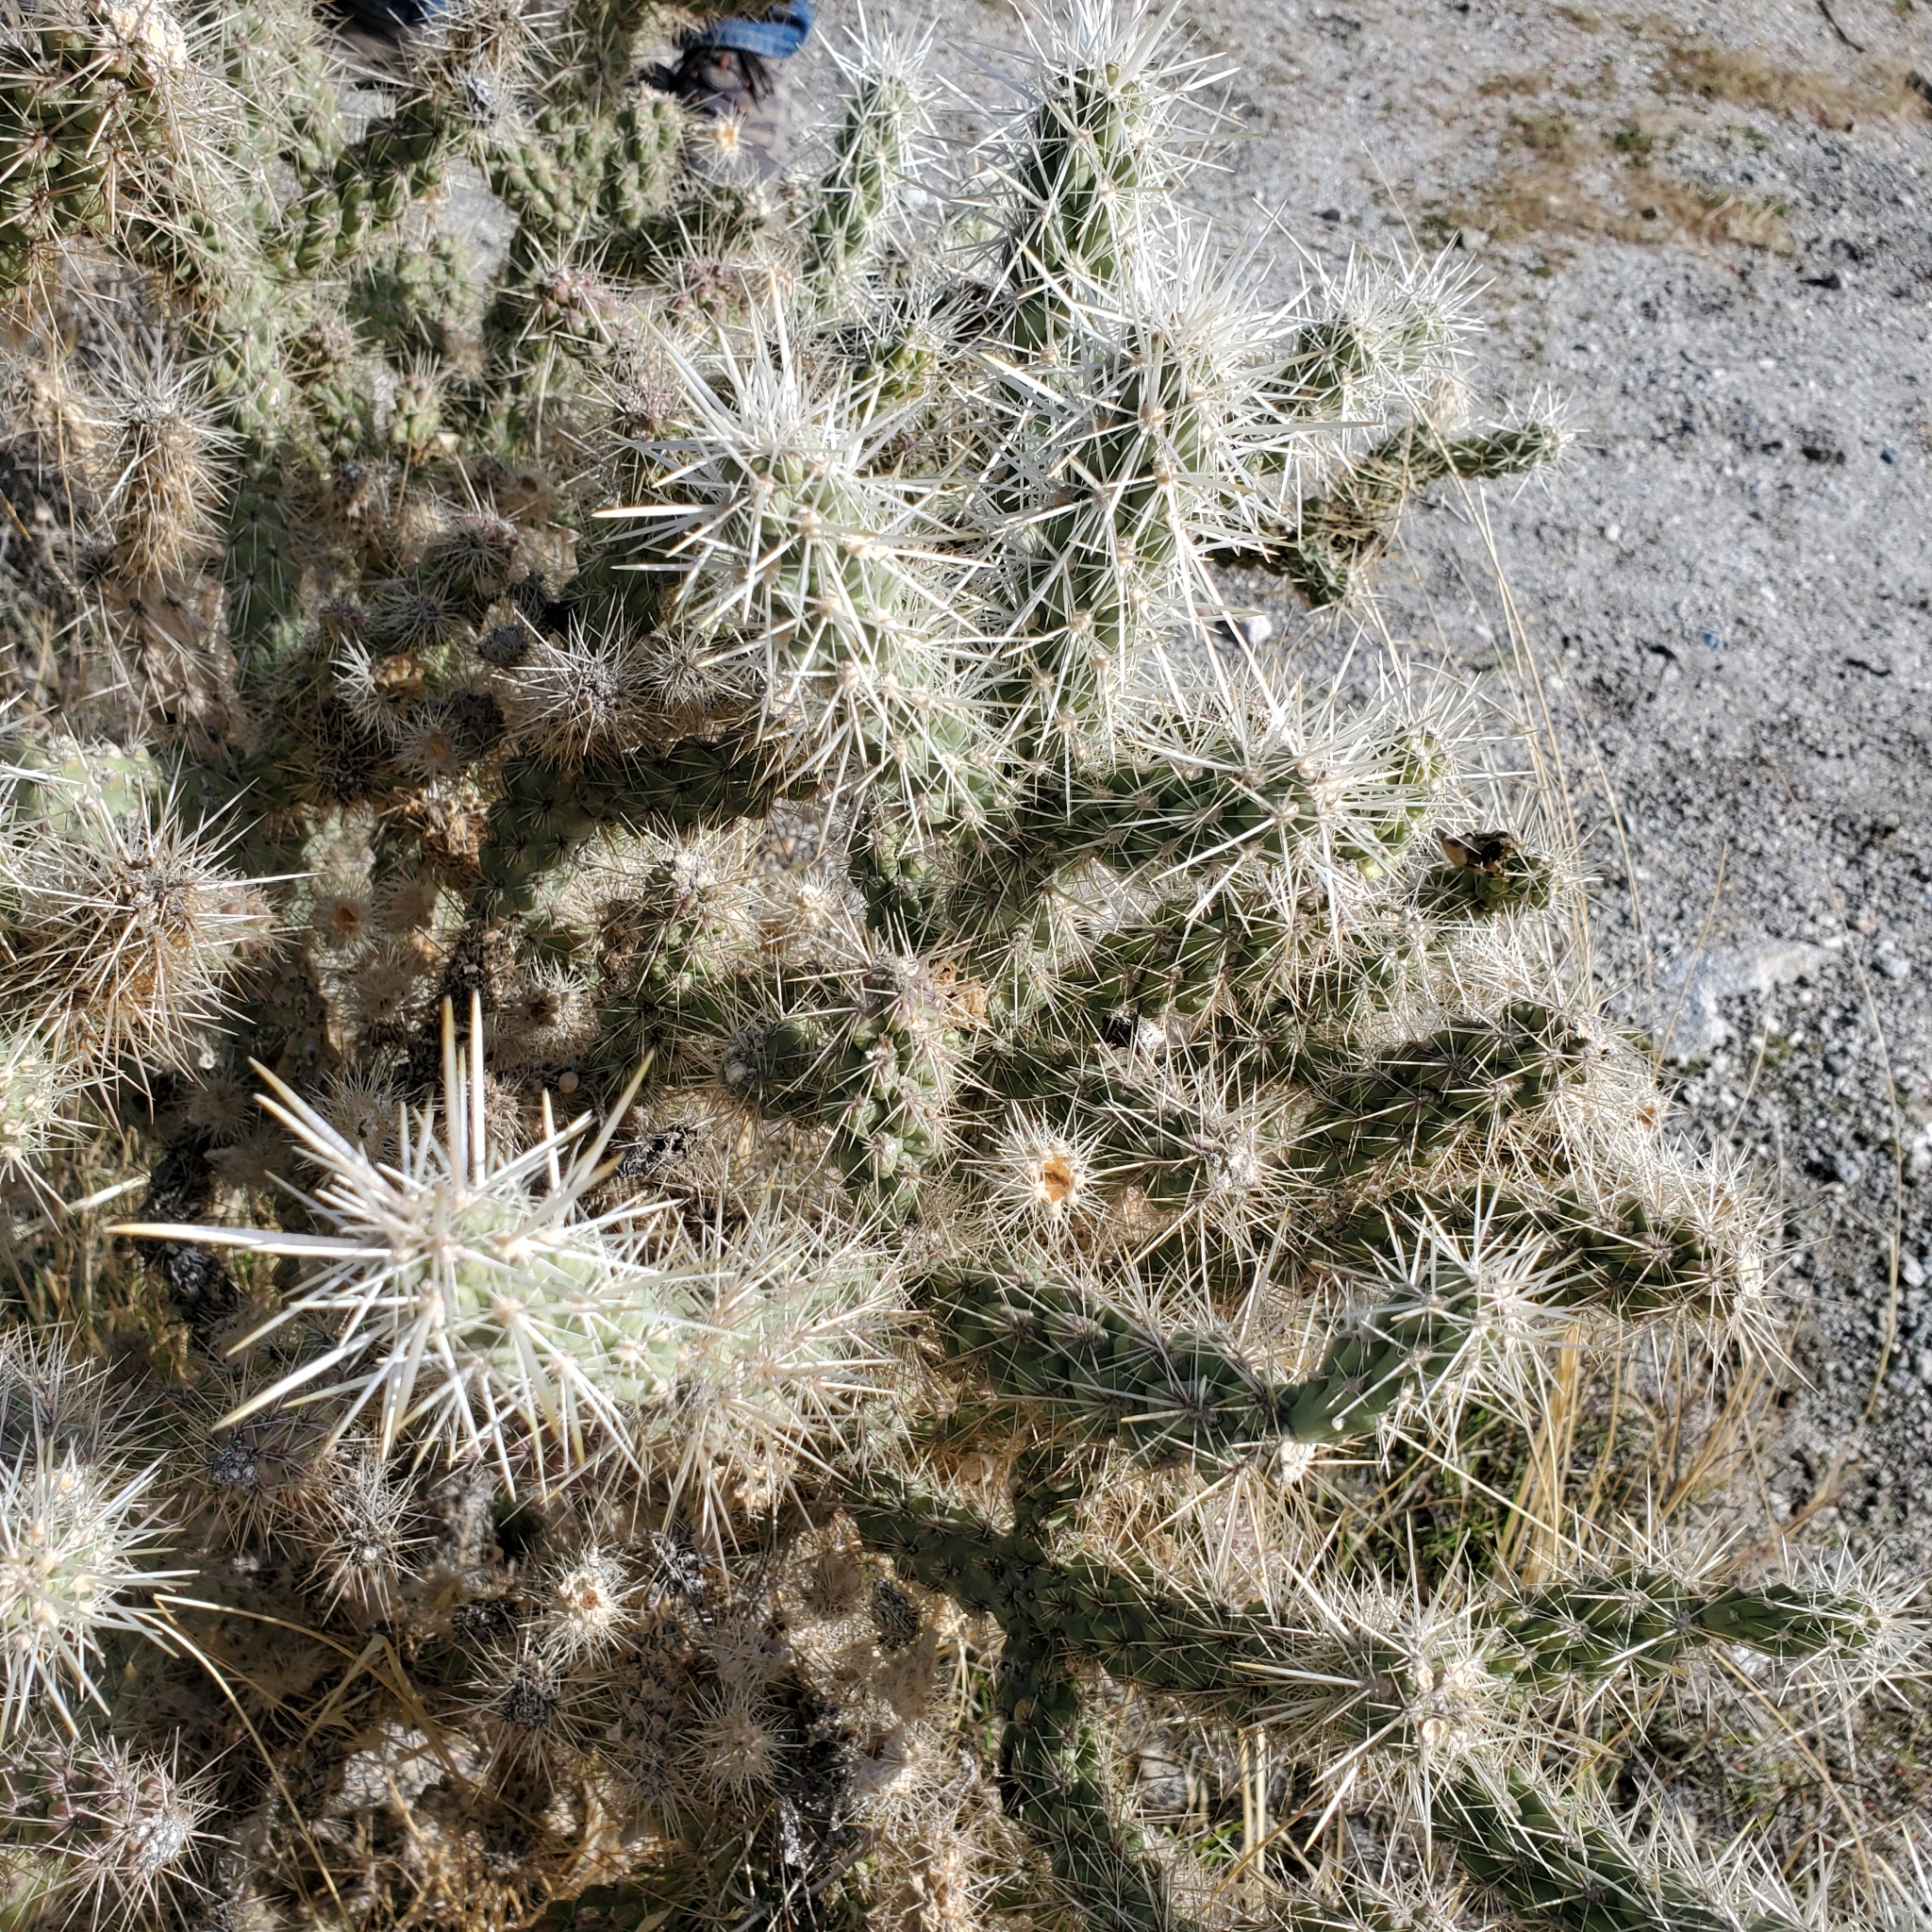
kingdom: Plantae
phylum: Tracheophyta
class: Magnoliopsida
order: Caryophyllales
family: Cactaceae
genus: Cylindropuntia
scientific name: Cylindropuntia echinocarpa
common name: Ground cholla
